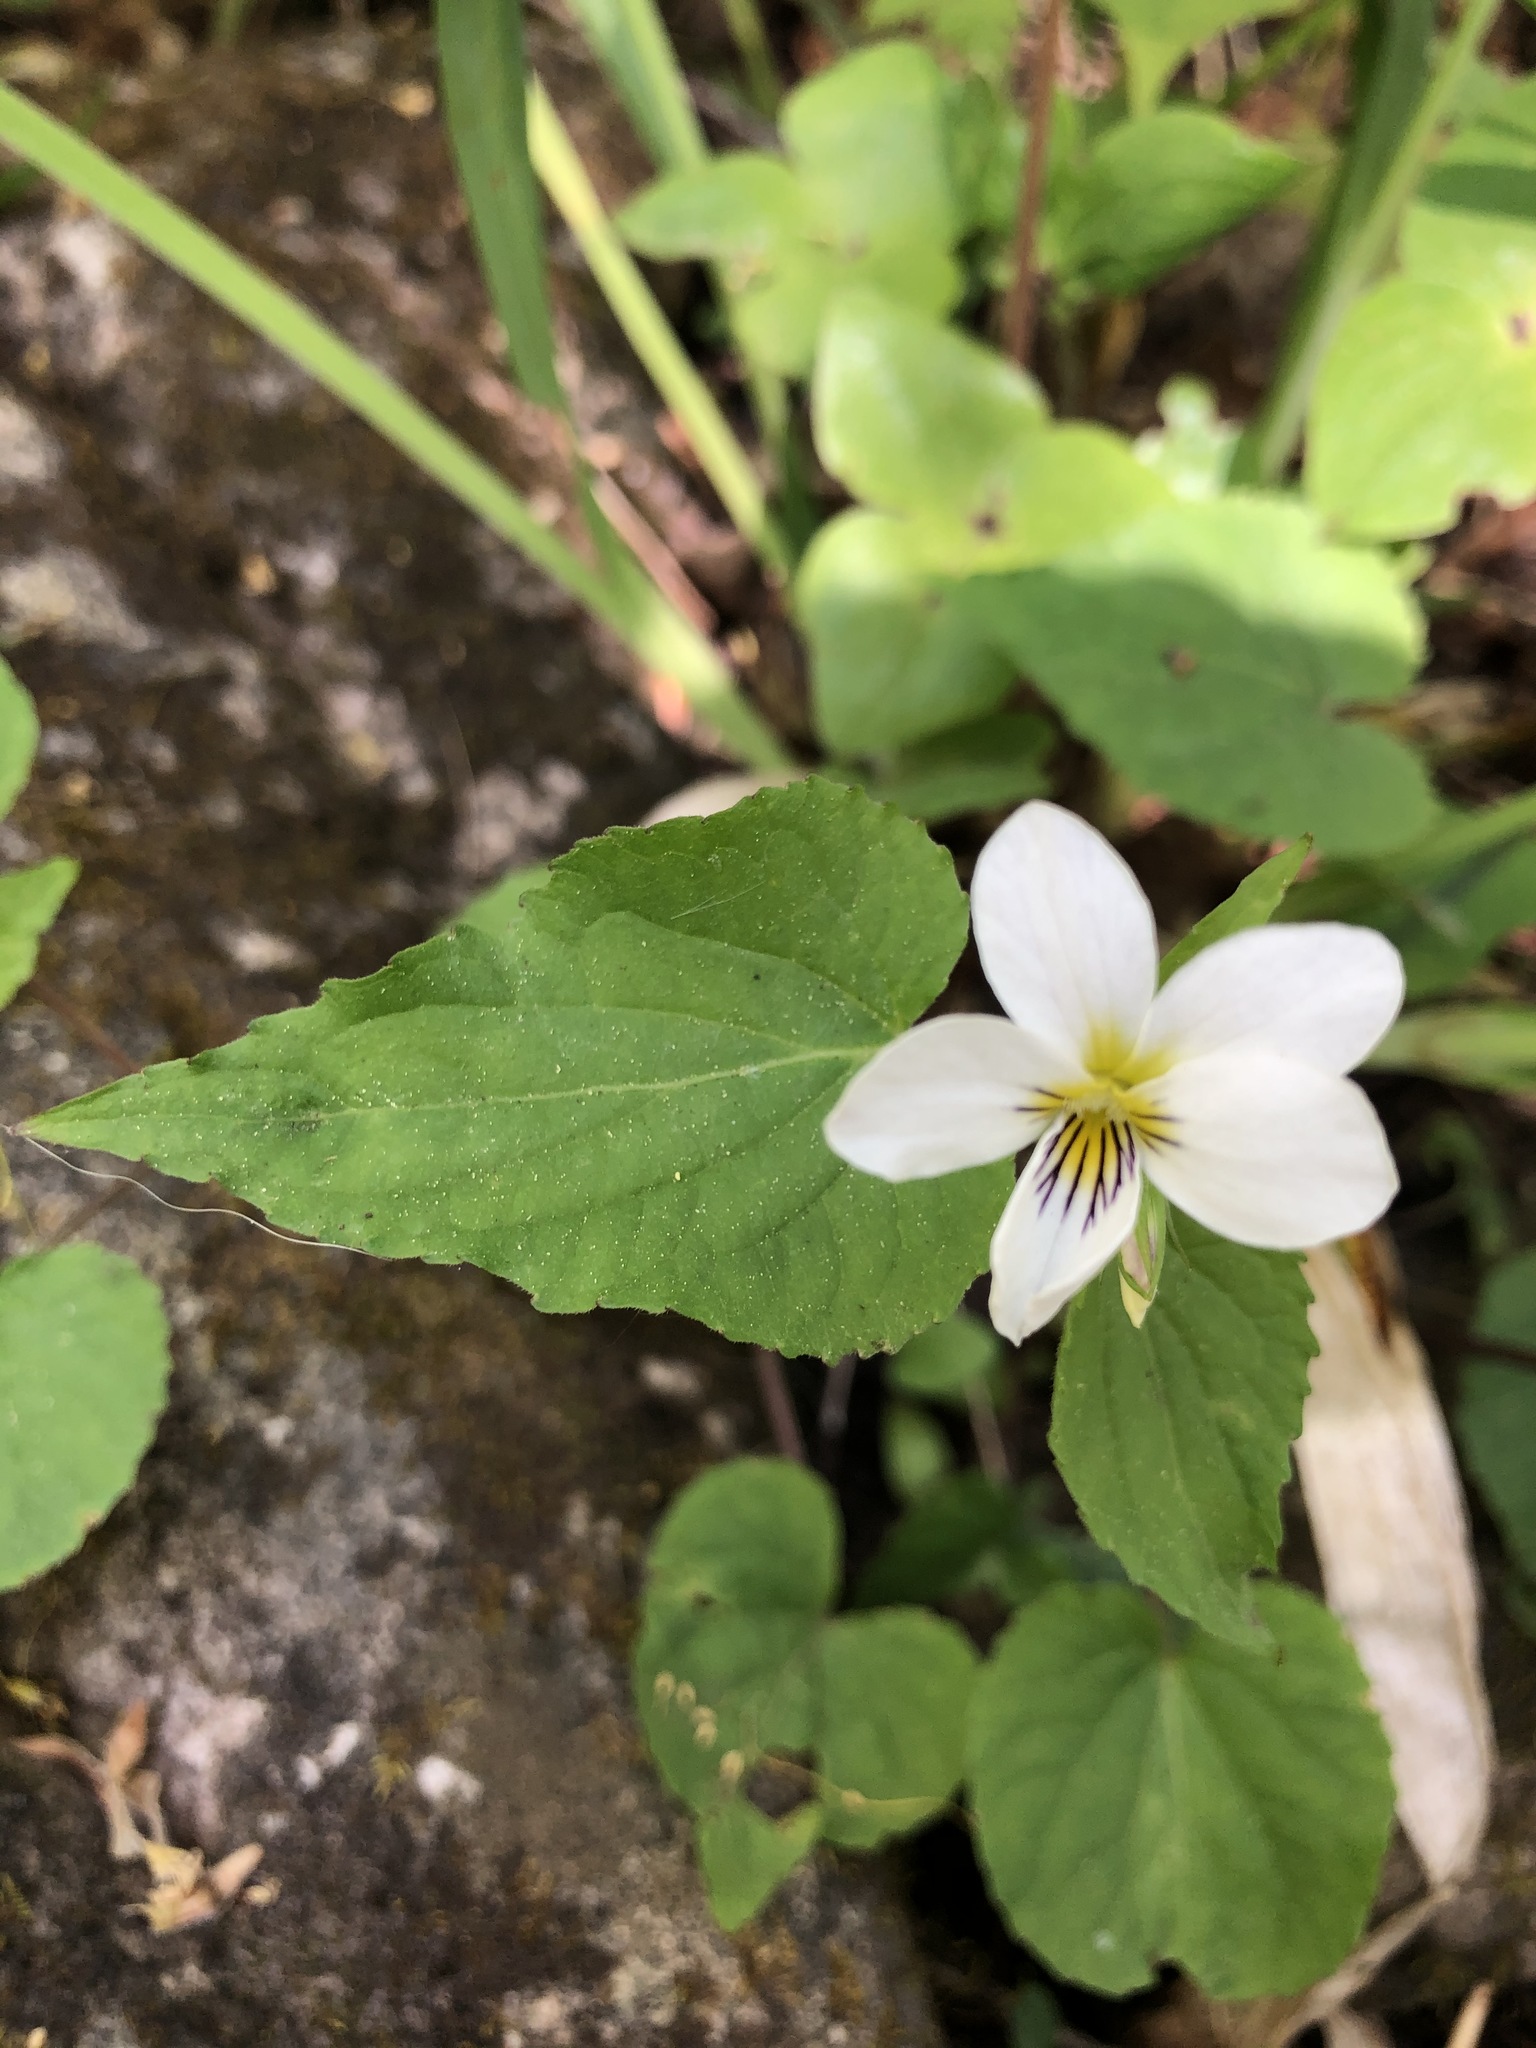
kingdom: Plantae
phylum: Tracheophyta
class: Magnoliopsida
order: Malpighiales
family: Violaceae
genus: Viola
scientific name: Viola canadensis
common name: Canada violet
